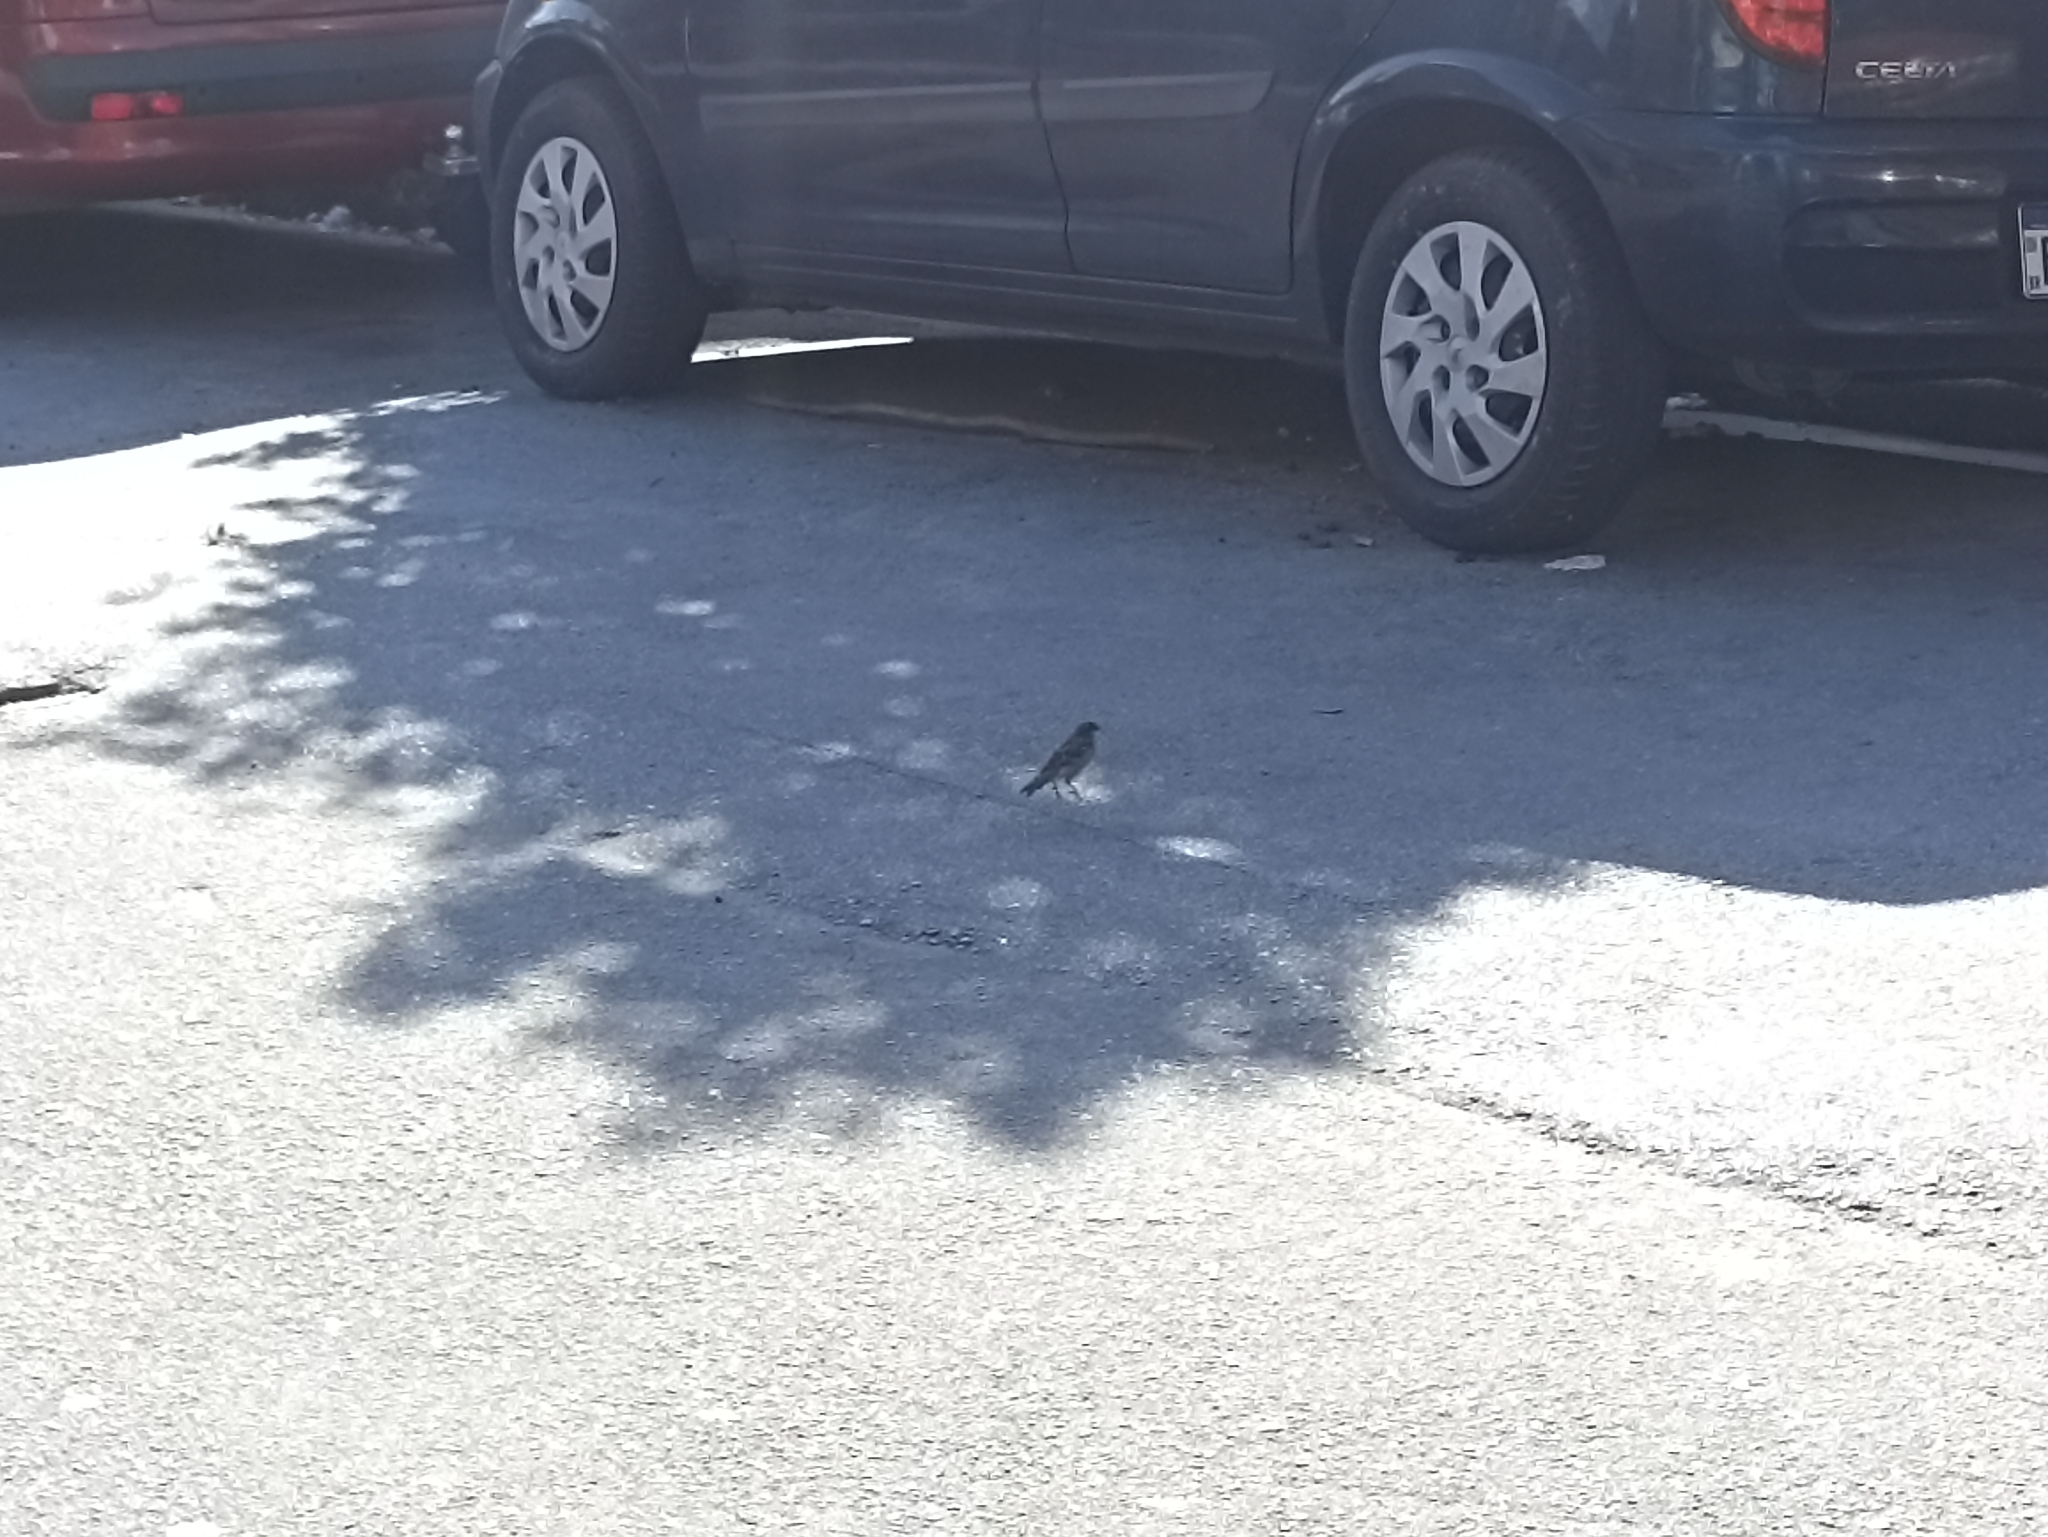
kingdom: Animalia
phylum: Chordata
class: Aves
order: Passeriformes
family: Passeridae
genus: Passer
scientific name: Passer domesticus
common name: House sparrow
